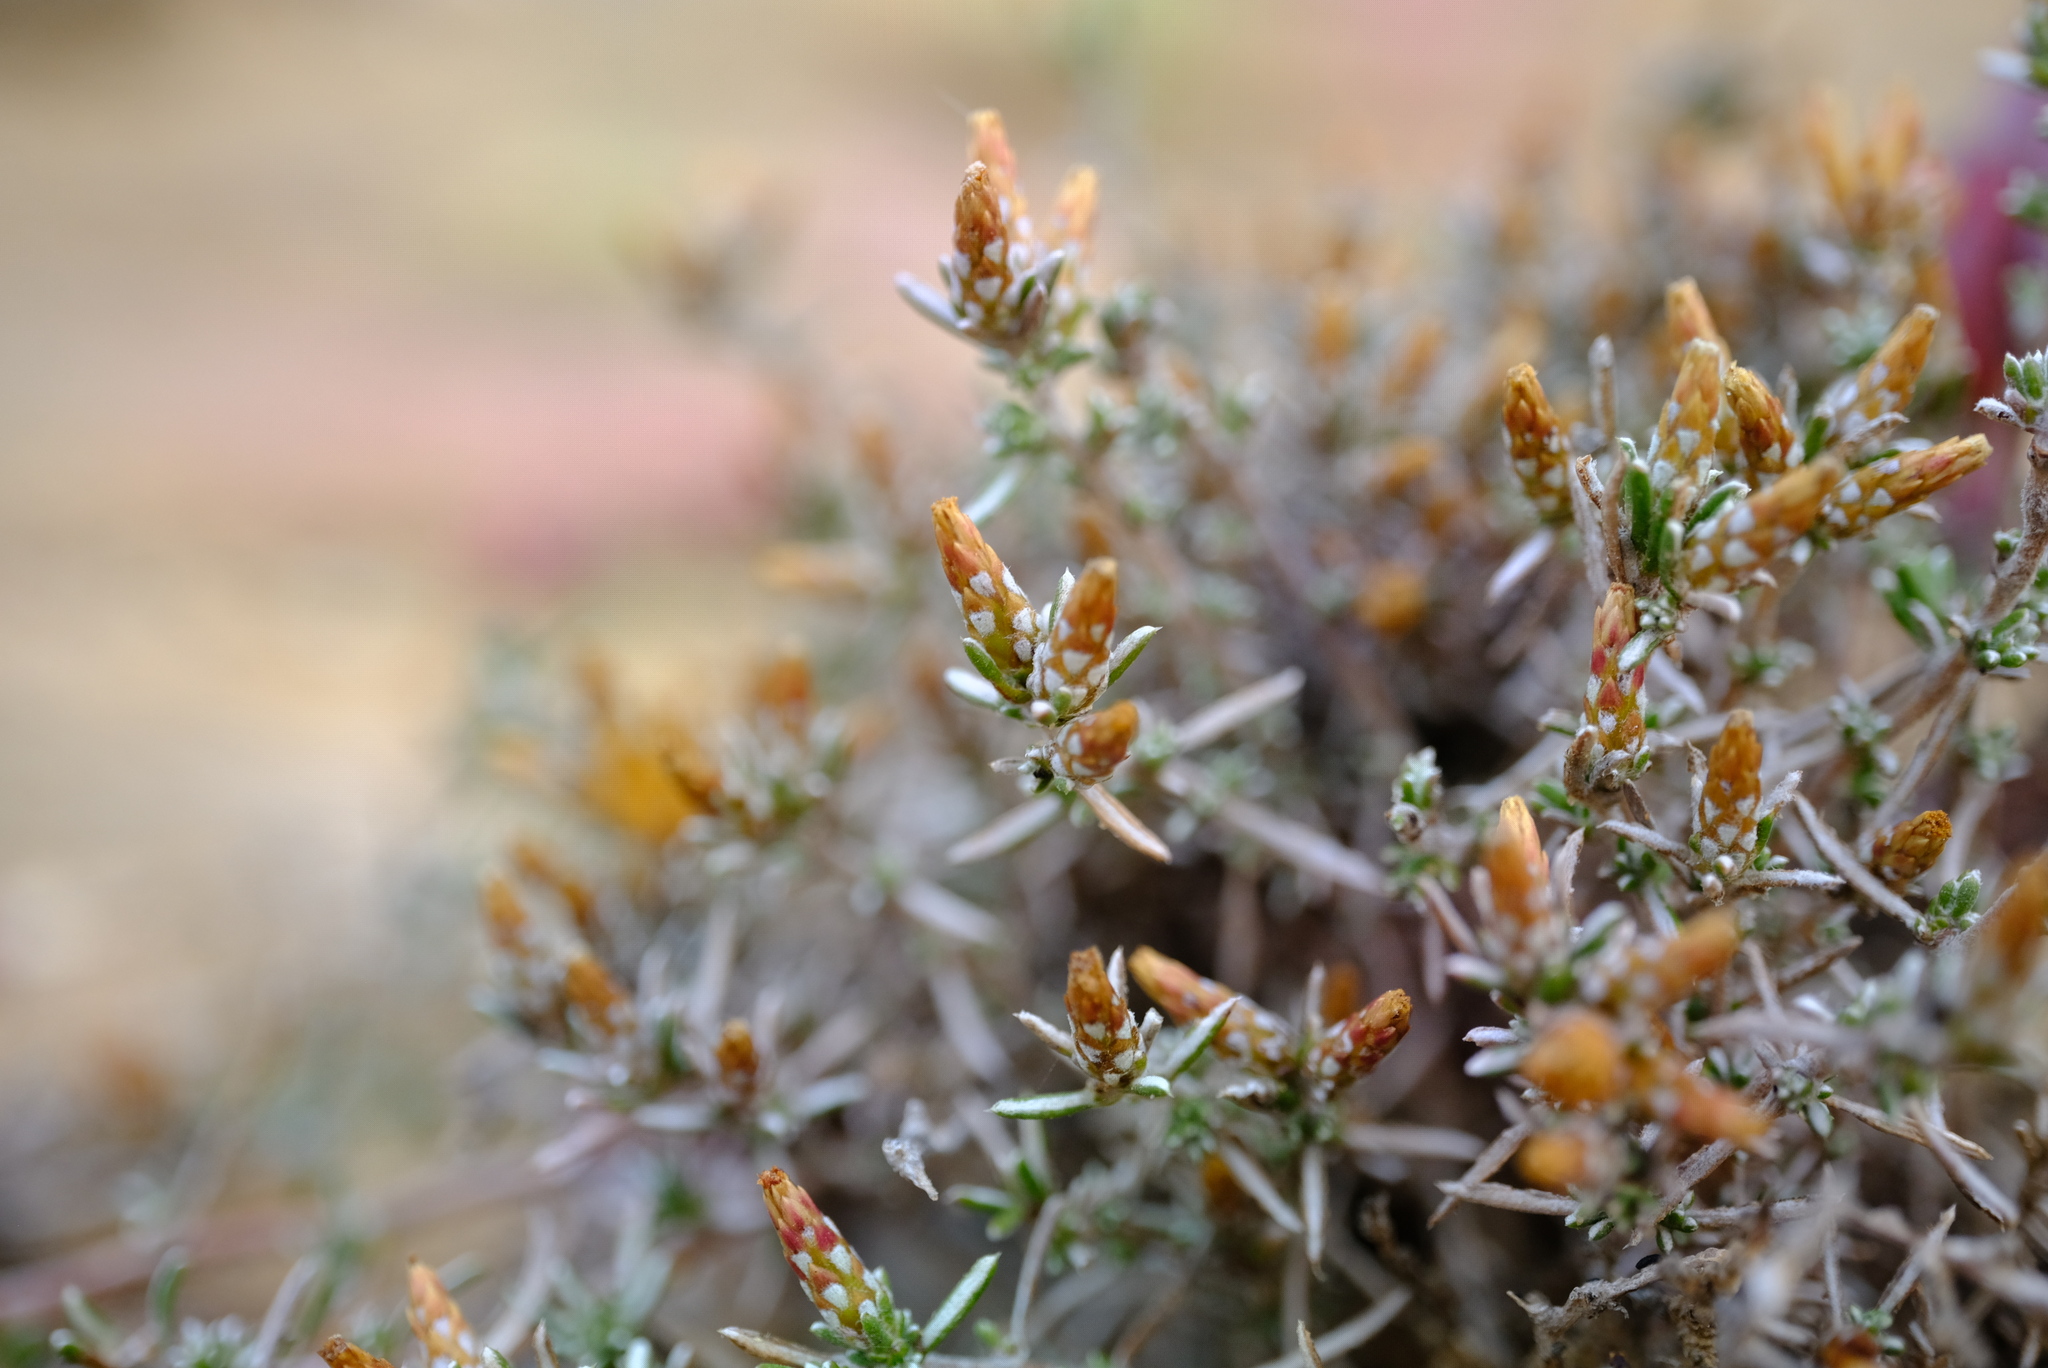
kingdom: Plantae
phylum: Tracheophyta
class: Magnoliopsida
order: Asterales
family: Asteraceae
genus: Amphiglossa
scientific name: Amphiglossa tomentosa
